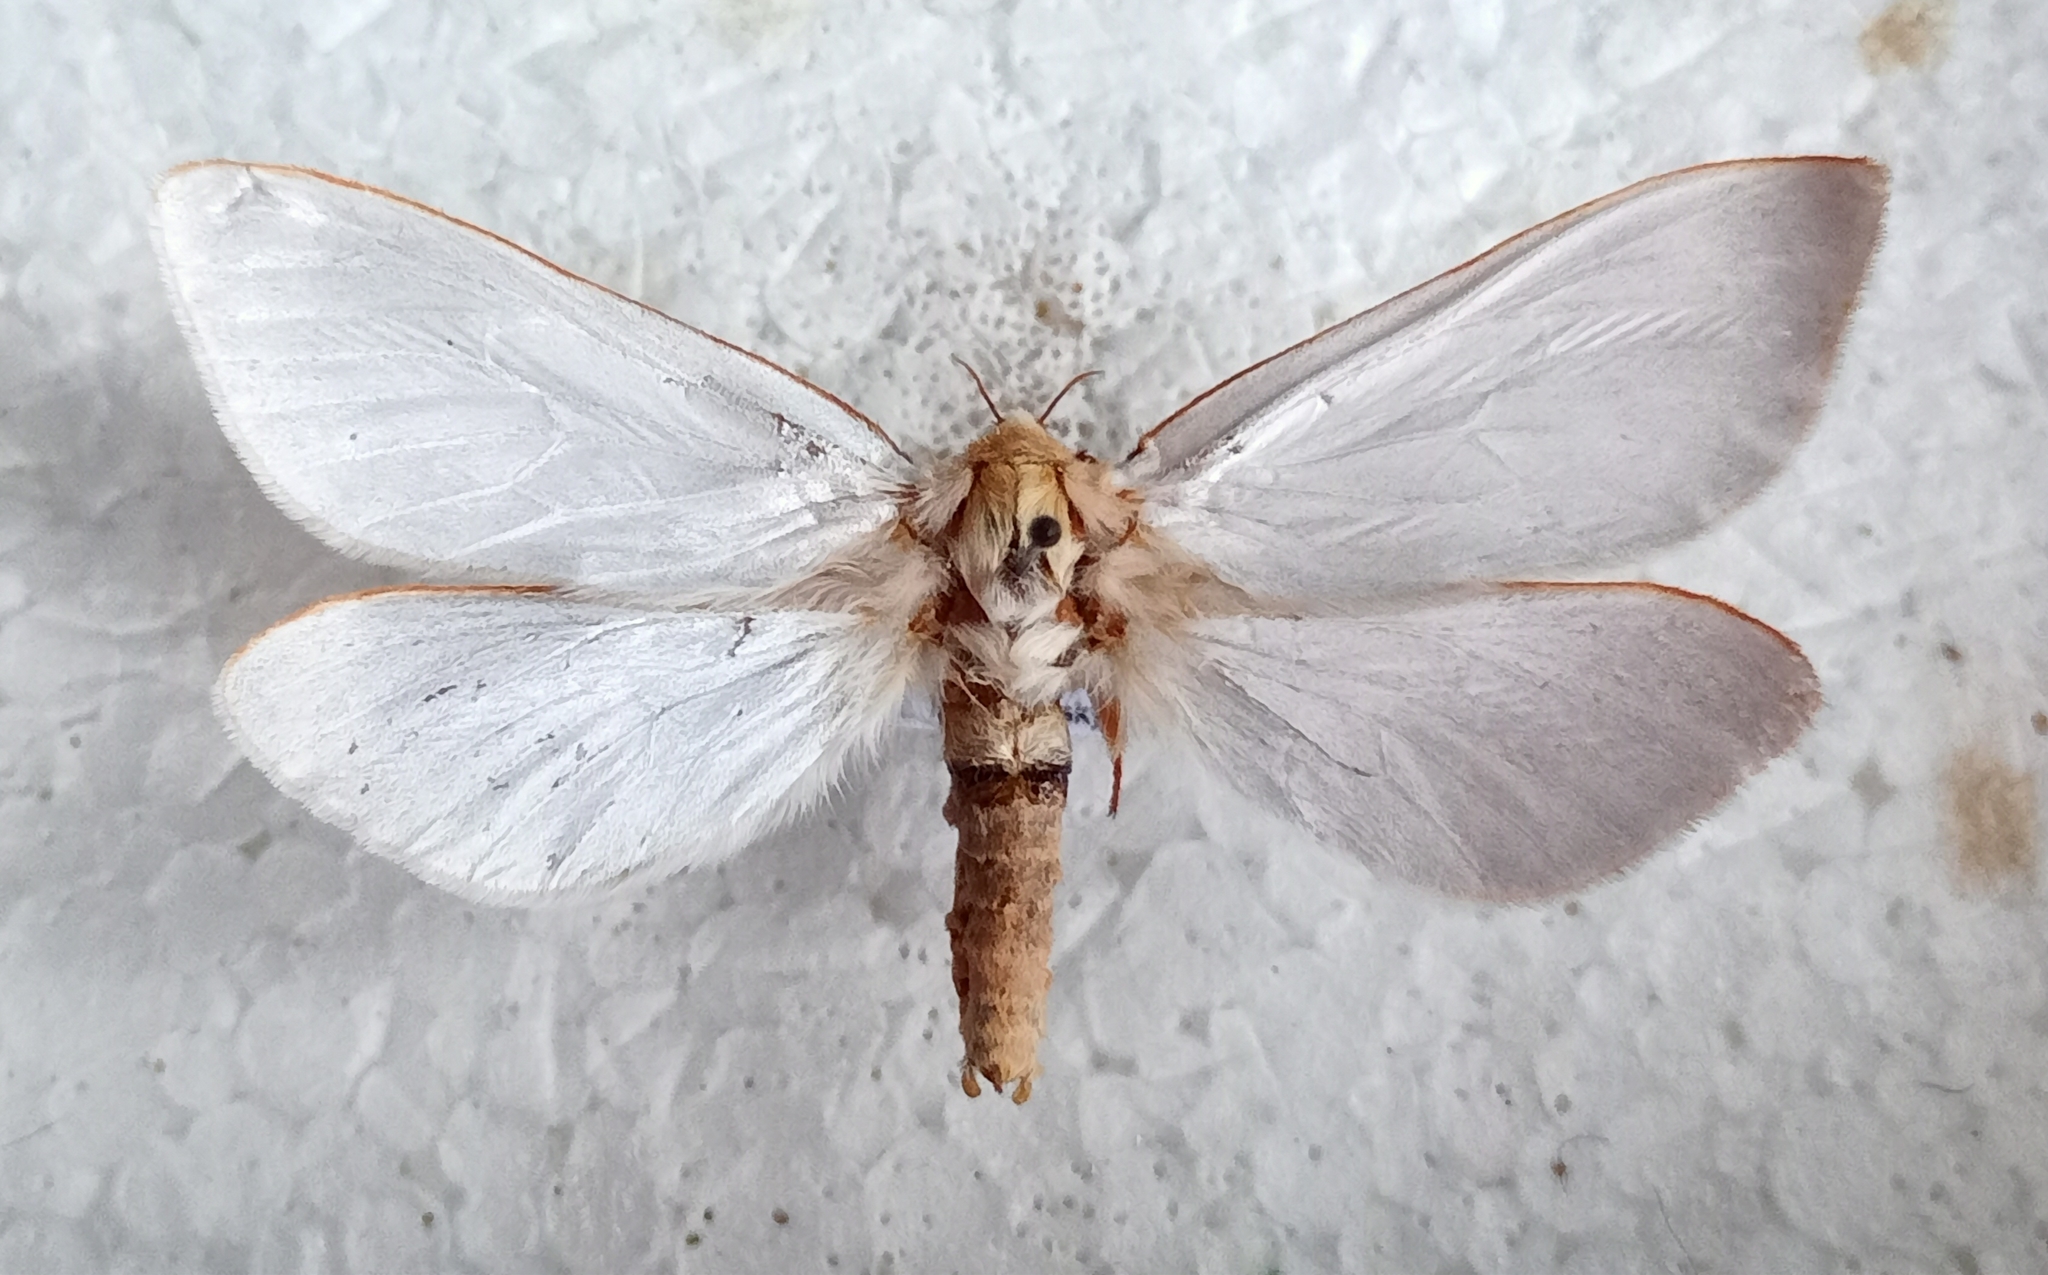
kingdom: Animalia
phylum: Arthropoda
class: Insecta
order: Lepidoptera
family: Hepialidae
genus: Hepialus
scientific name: Hepialus humuli
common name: Ghost moth
